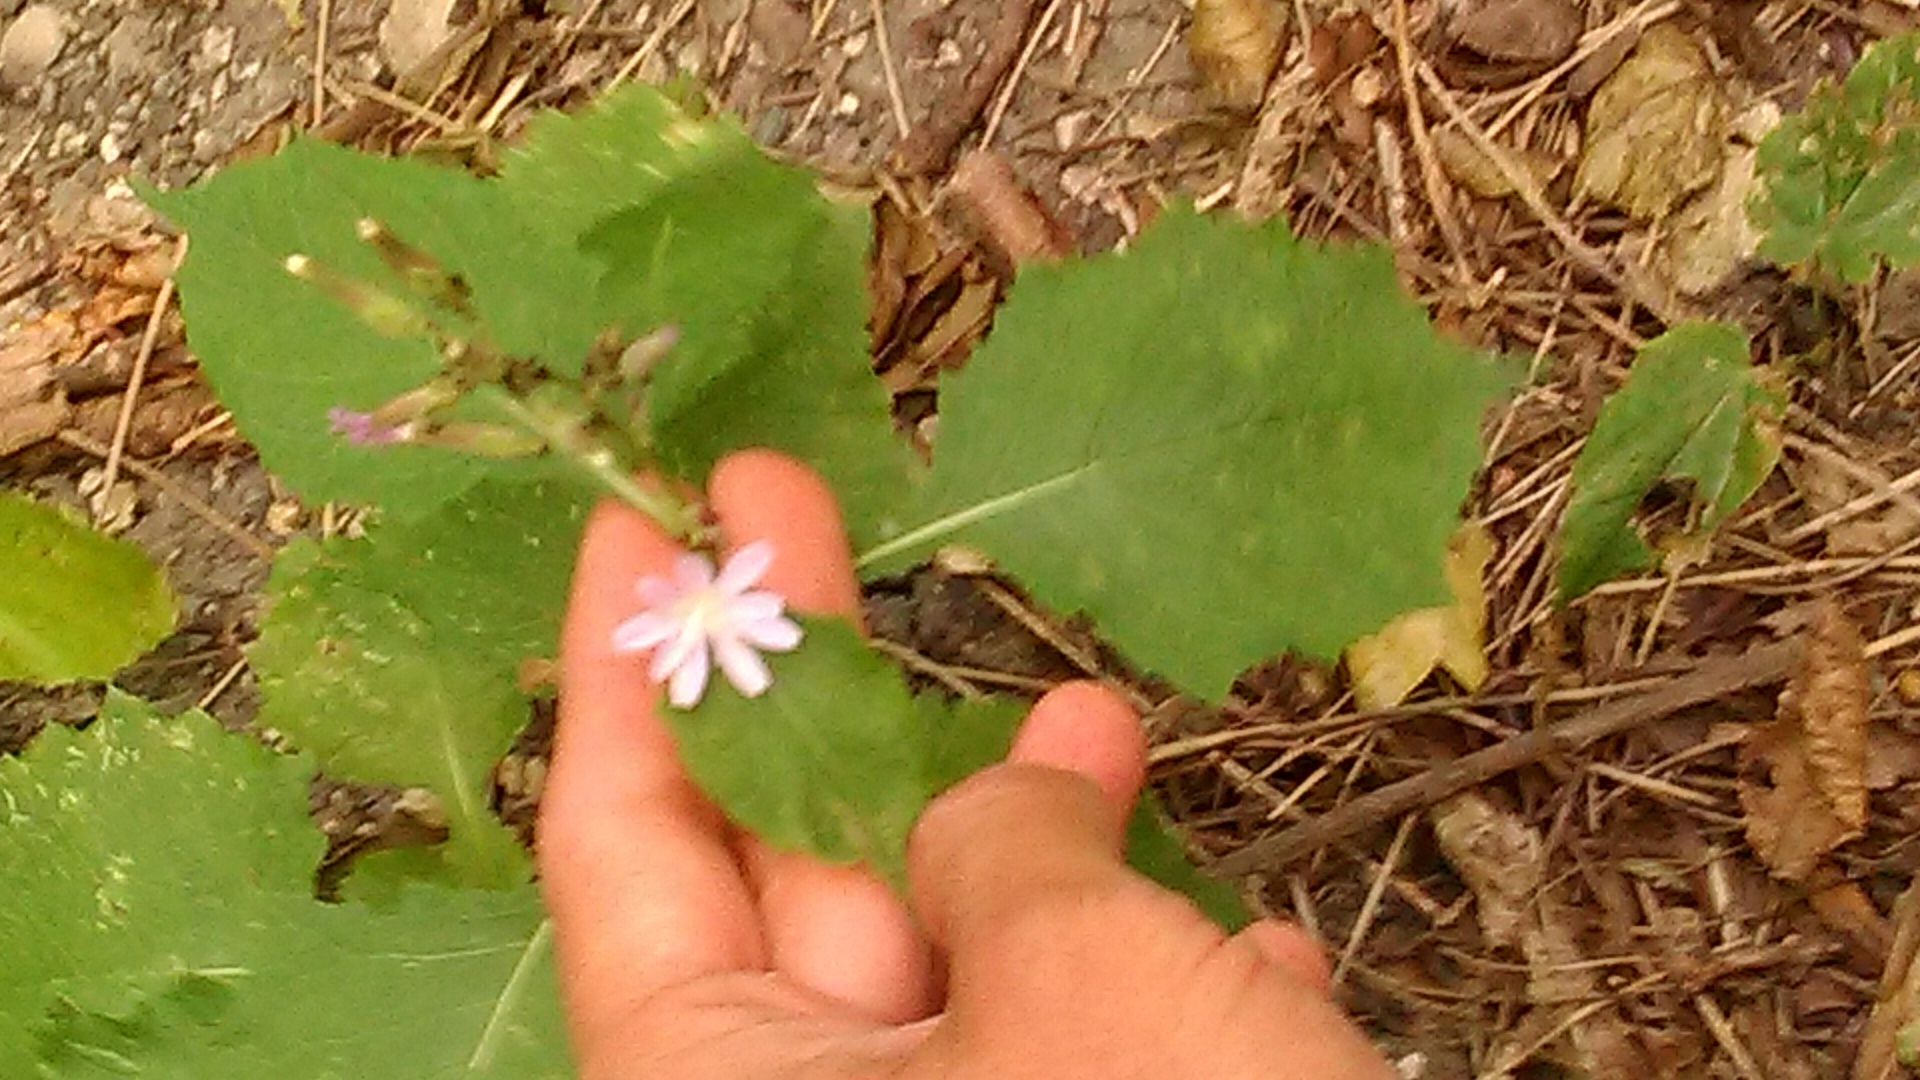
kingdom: Plantae
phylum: Tracheophyta
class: Magnoliopsida
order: Asterales
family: Asteraceae
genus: Cicerbita
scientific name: Cicerbita prenanthoides
